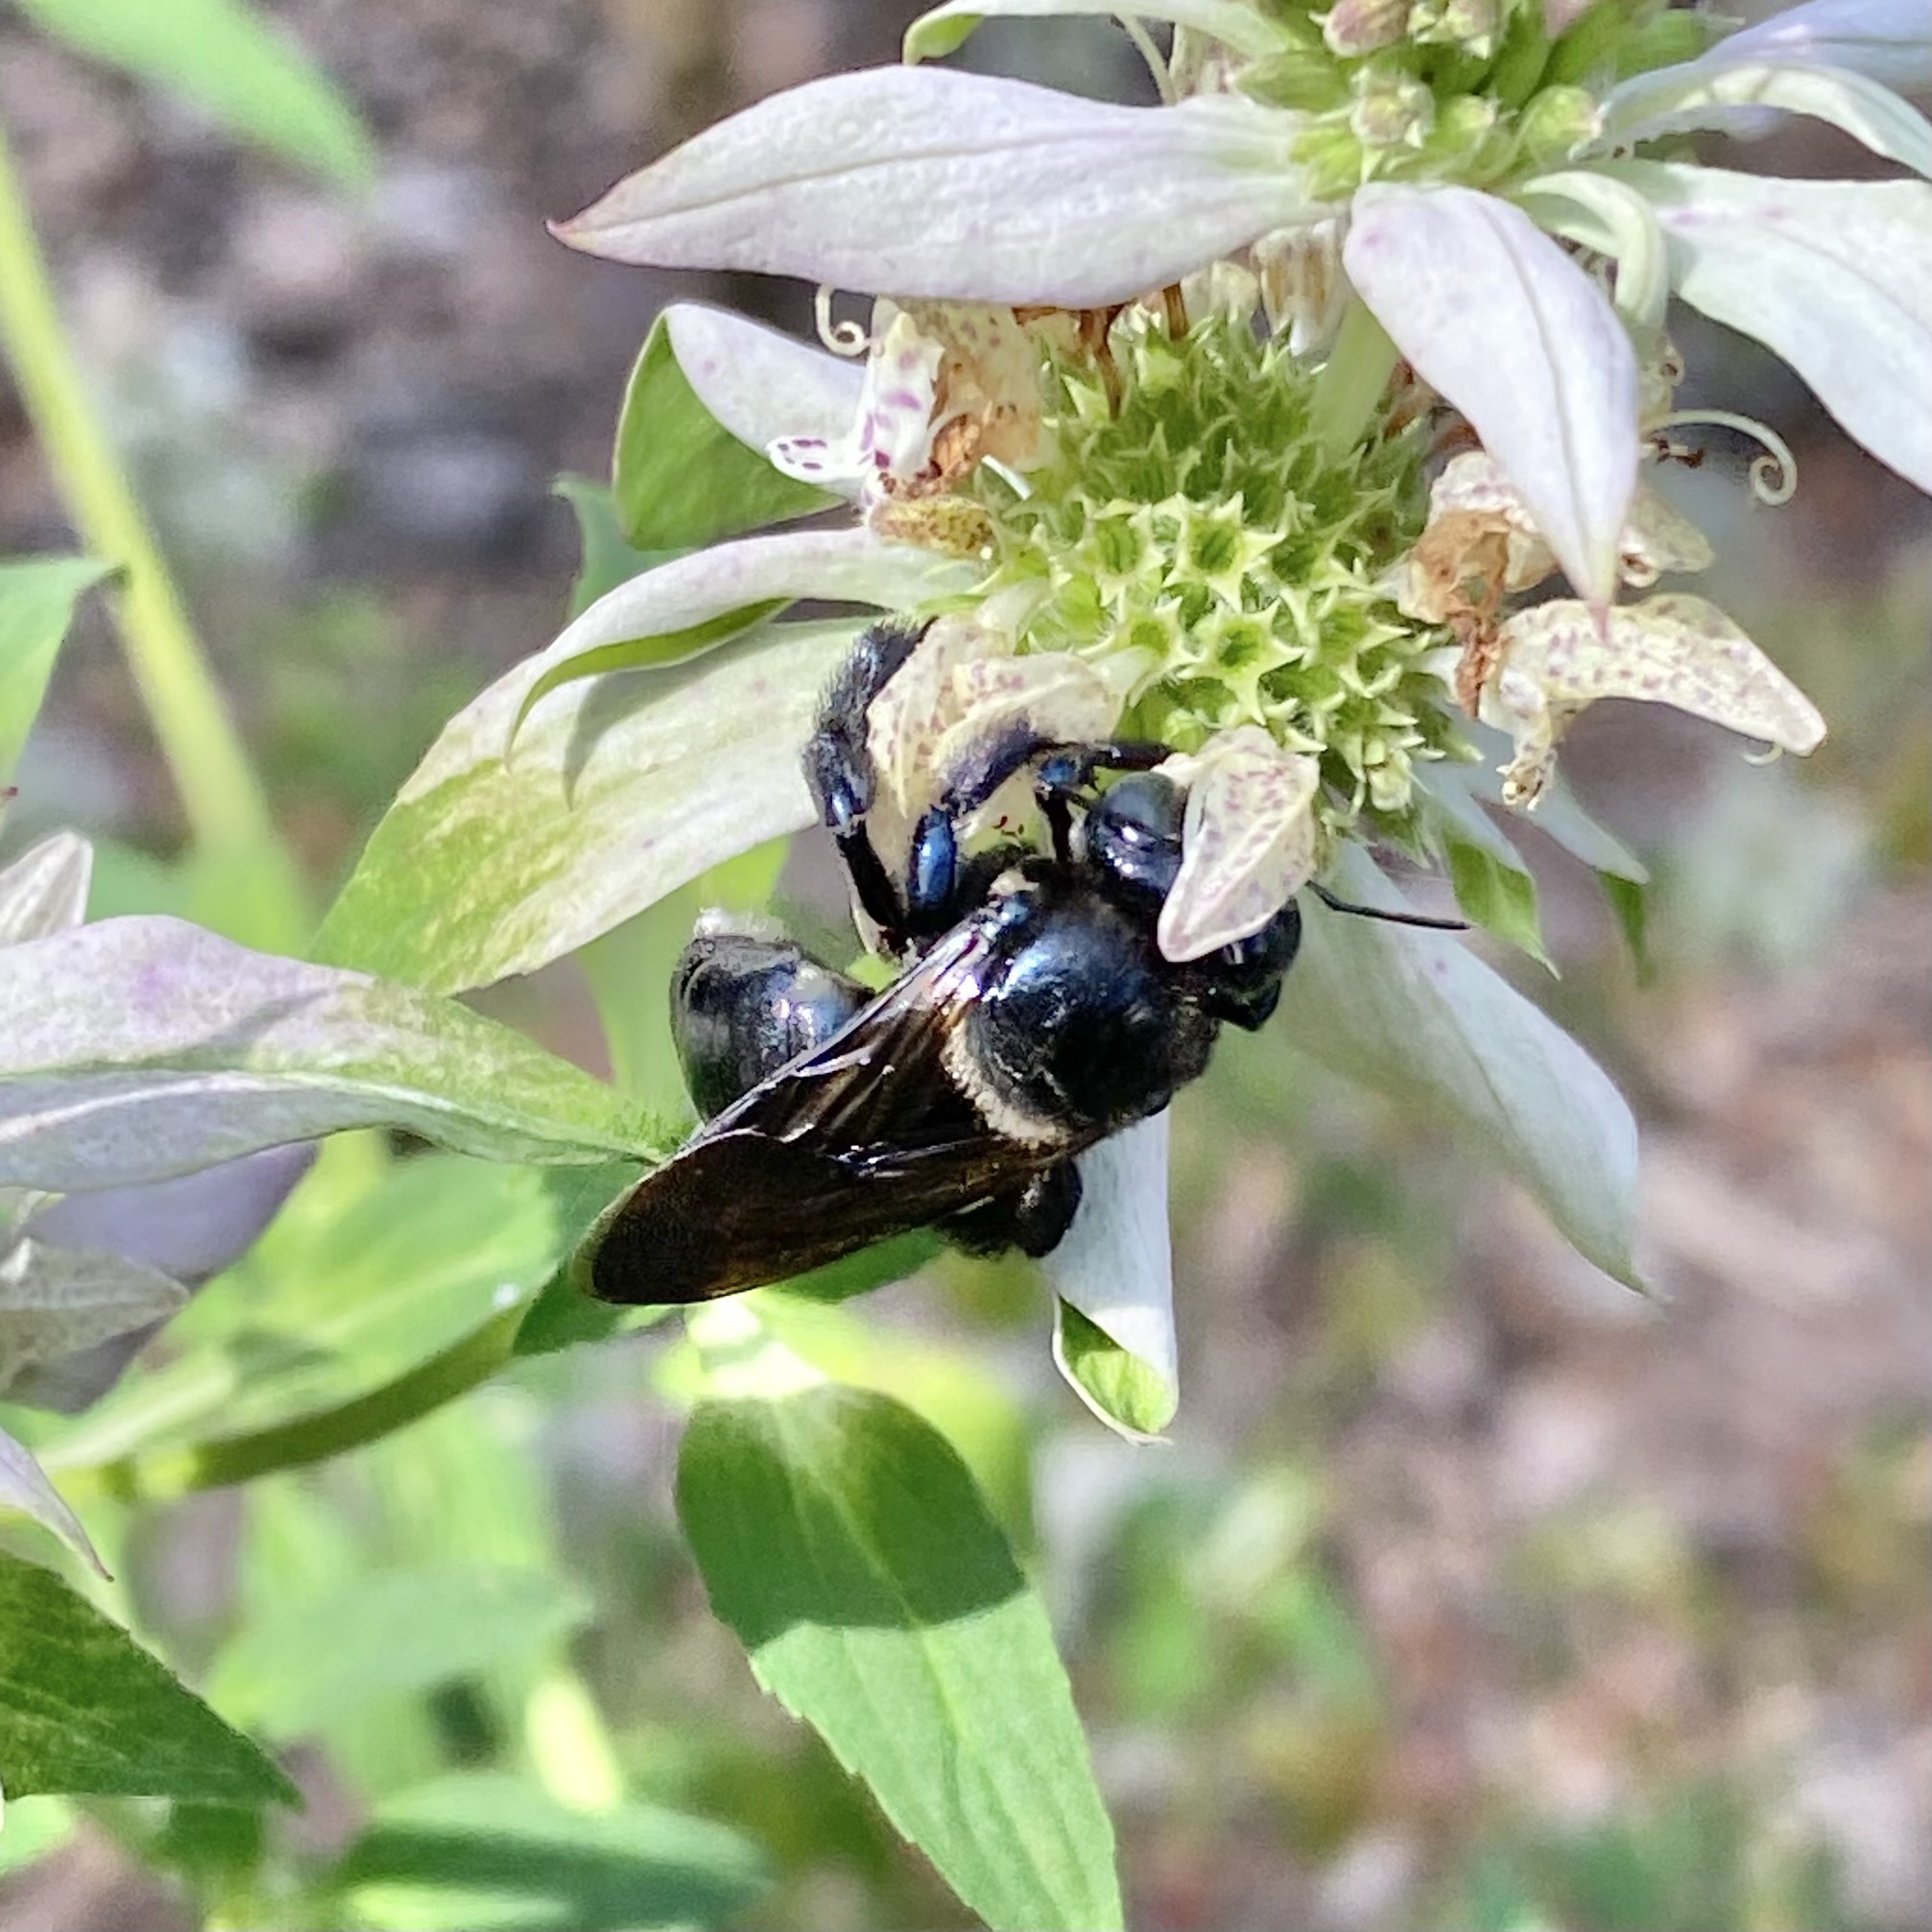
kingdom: Animalia
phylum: Arthropoda
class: Insecta
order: Hymenoptera
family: Apidae
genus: Xylocopa
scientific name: Xylocopa micans
